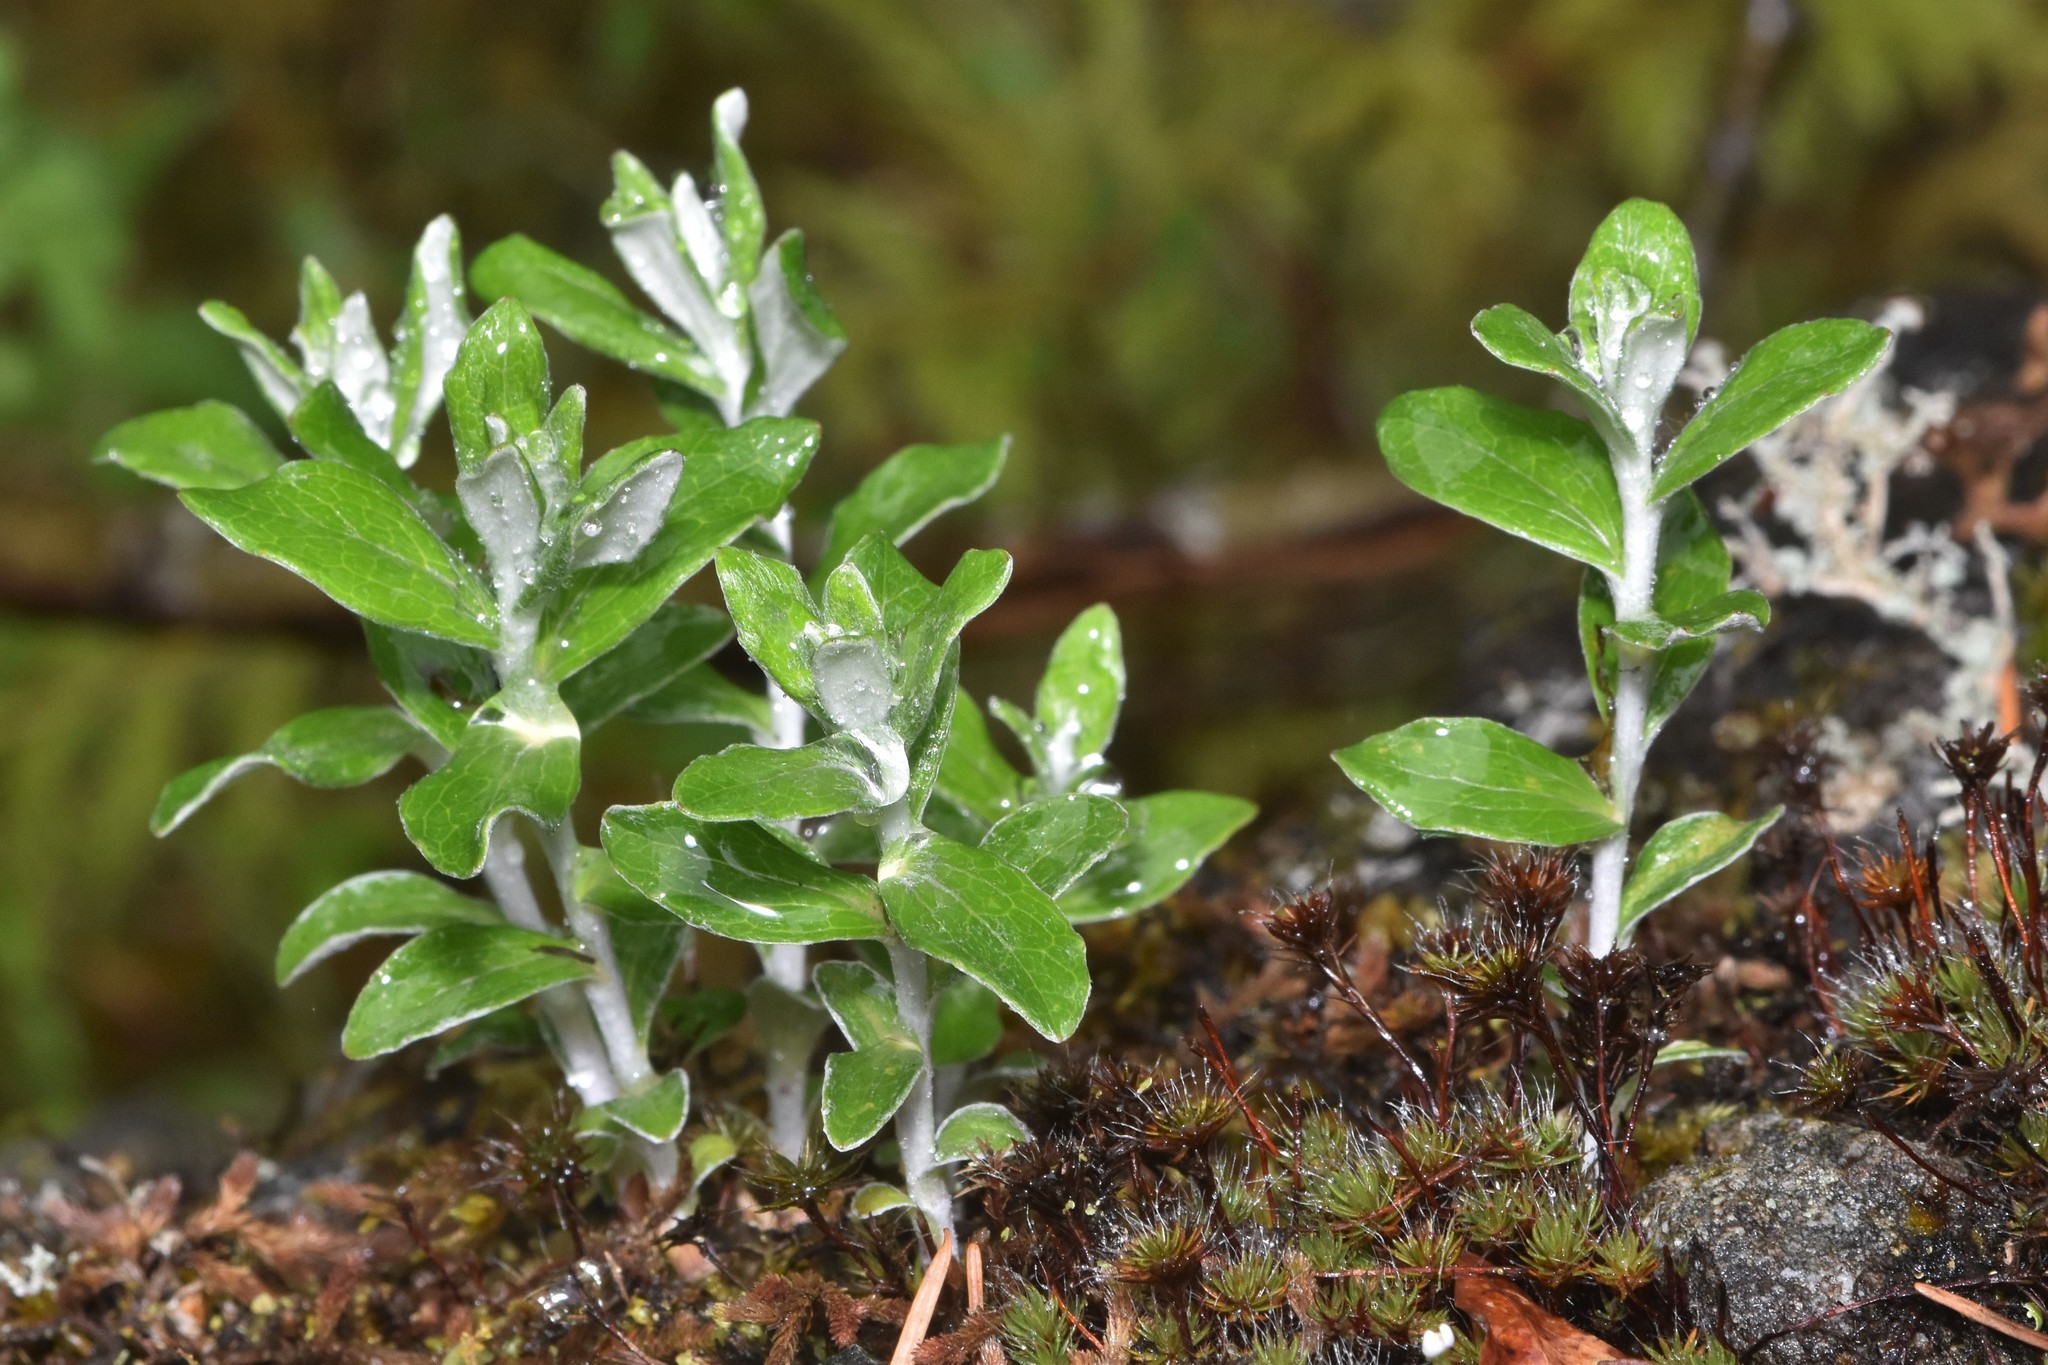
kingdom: Plantae
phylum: Tracheophyta
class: Magnoliopsida
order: Asterales
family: Asteraceae
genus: Luina
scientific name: Luina hypoleuca
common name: Little-leaved luina
